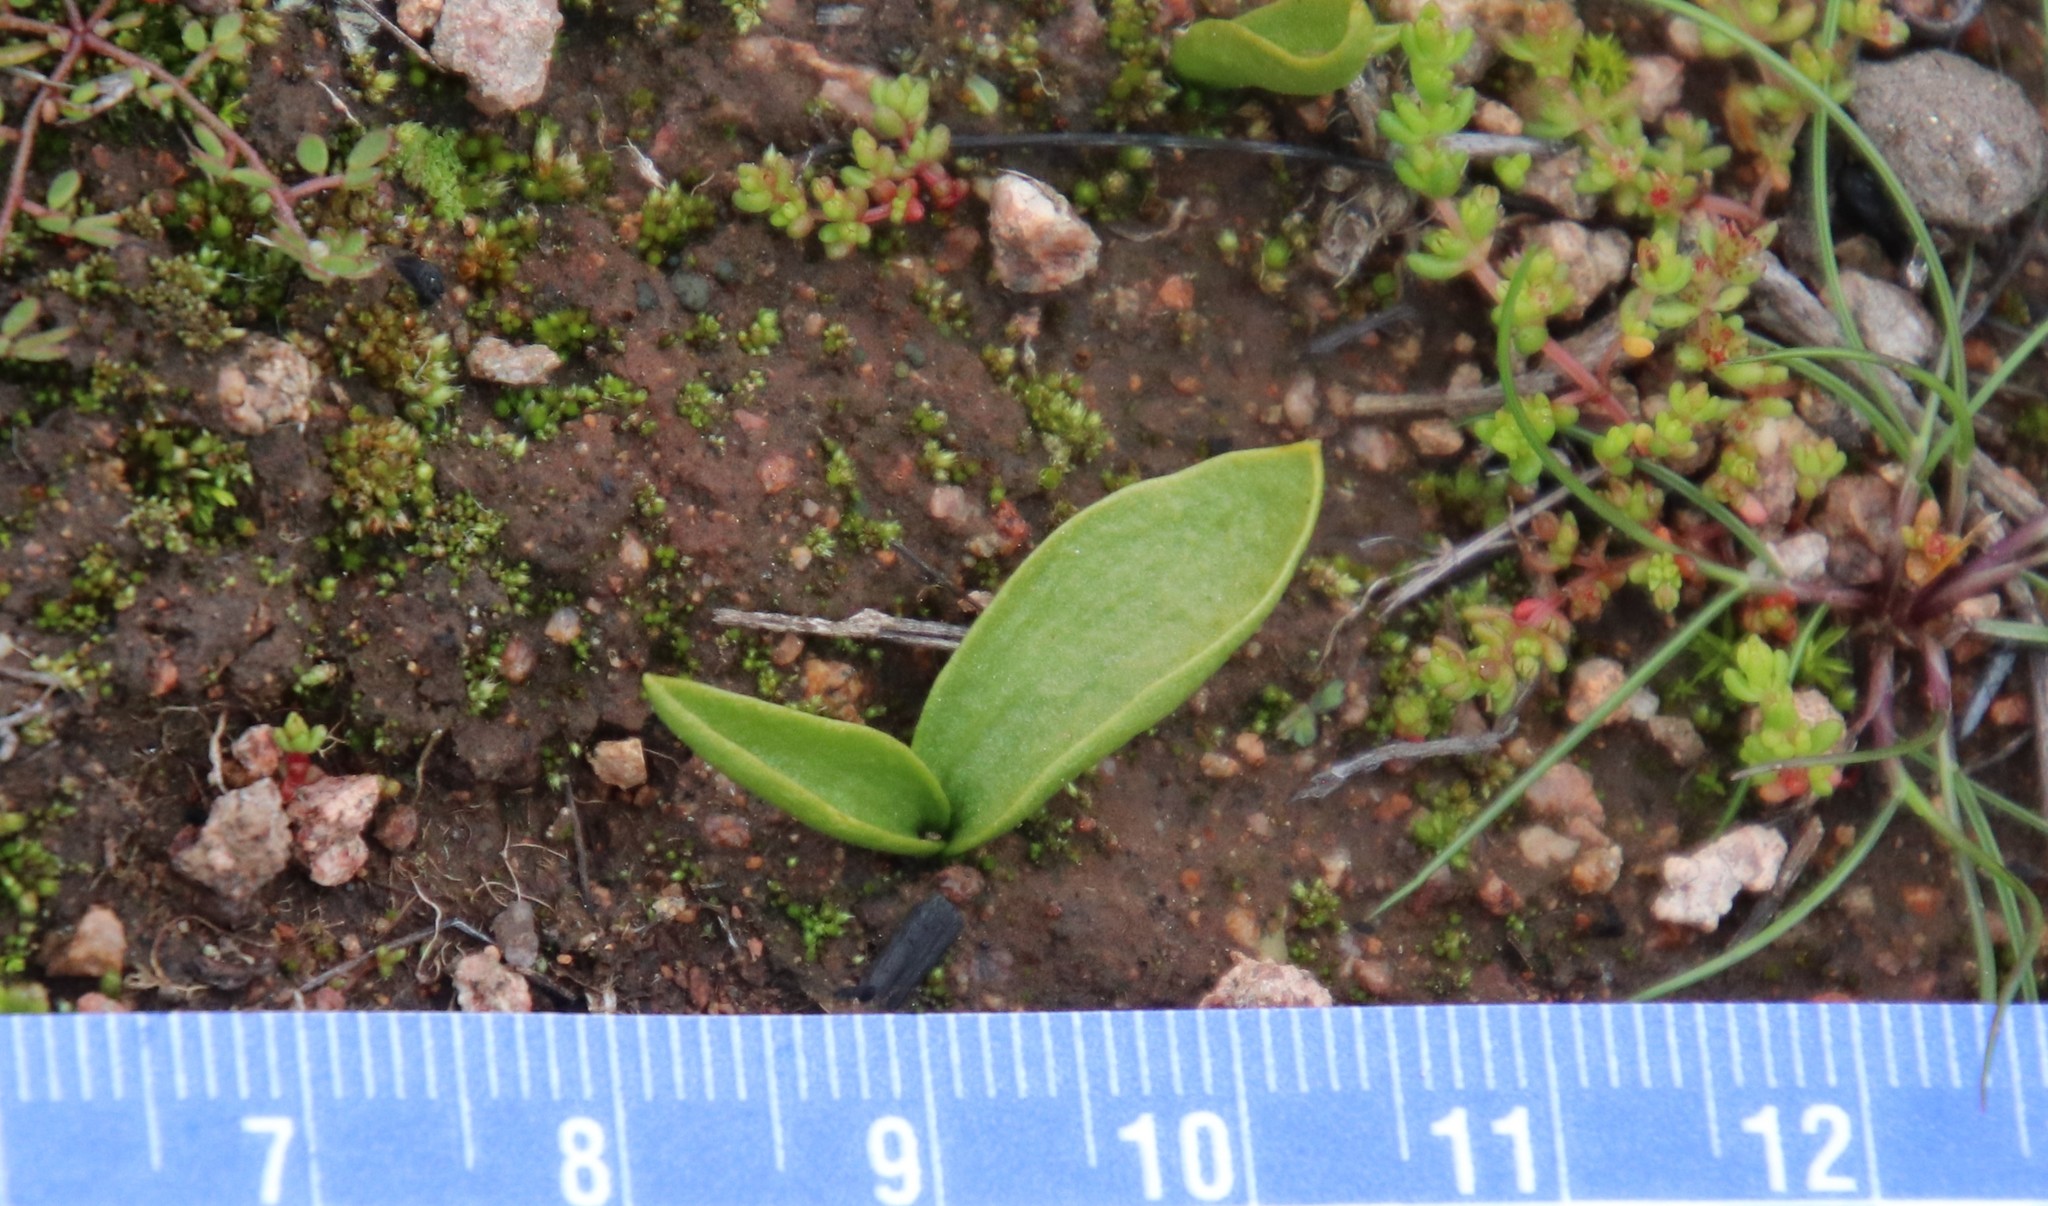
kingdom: Plantae
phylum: Tracheophyta
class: Polypodiopsida
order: Ophioglossales
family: Ophioglossaceae
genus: Ophioglossum
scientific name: Ophioglossum californicum
